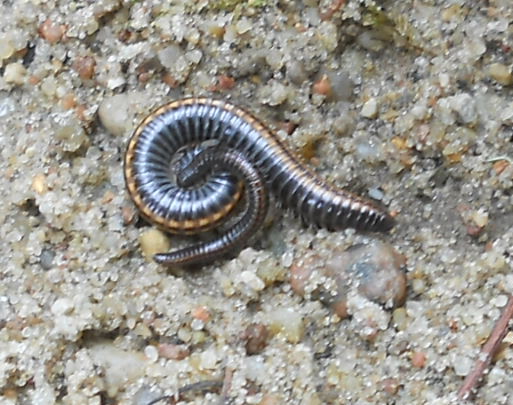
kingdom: Animalia
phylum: Arthropoda
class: Diplopoda
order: Julida
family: Julidae
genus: Ommatoiulus
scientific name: Ommatoiulus sabulosus
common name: Striped millipede
